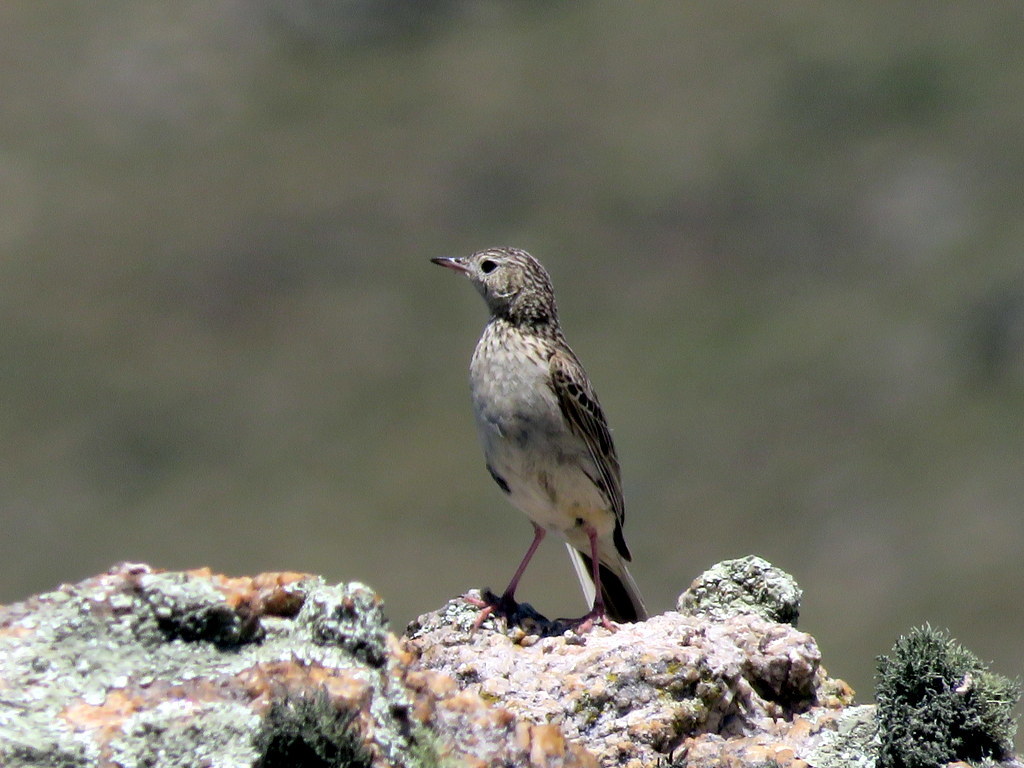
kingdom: Animalia
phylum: Chordata
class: Aves
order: Passeriformes
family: Motacillidae
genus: Anthus
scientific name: Anthus hellmayri
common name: Hellmayr's pipit
